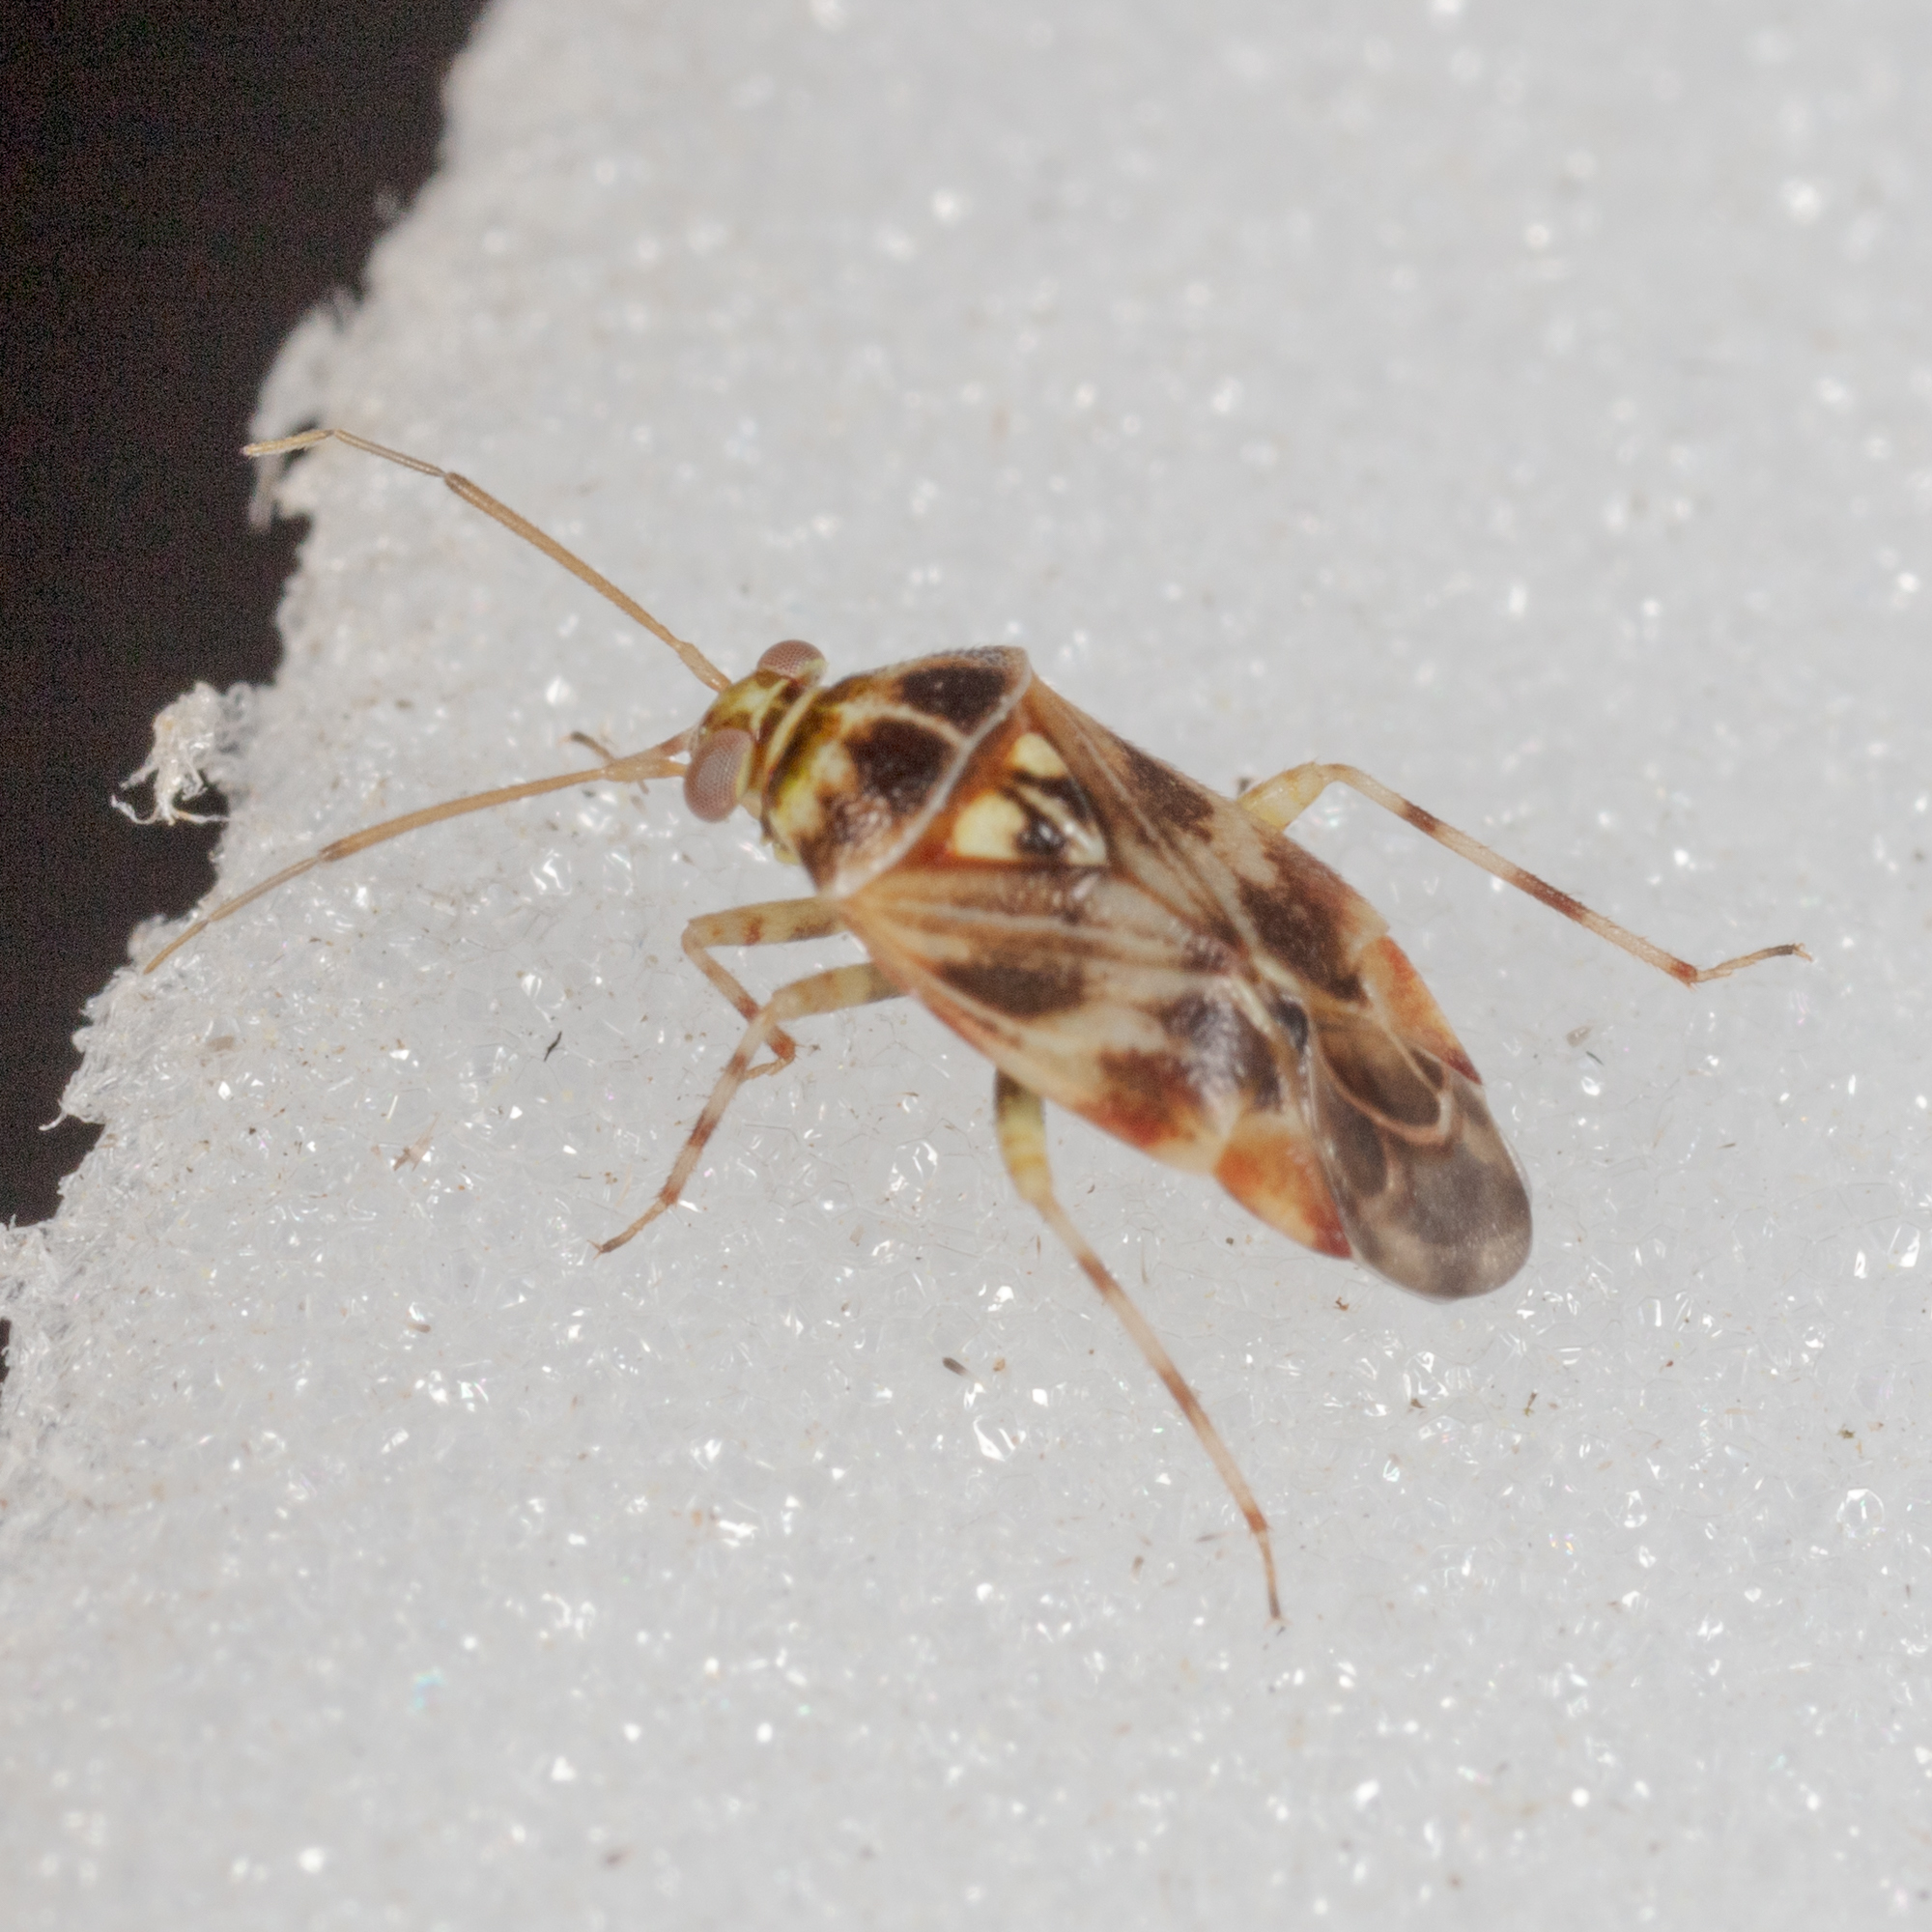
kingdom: Animalia
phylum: Arthropoda
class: Insecta
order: Hemiptera
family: Miridae
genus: Tropidosteptes
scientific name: Tropidosteptes quercicola
